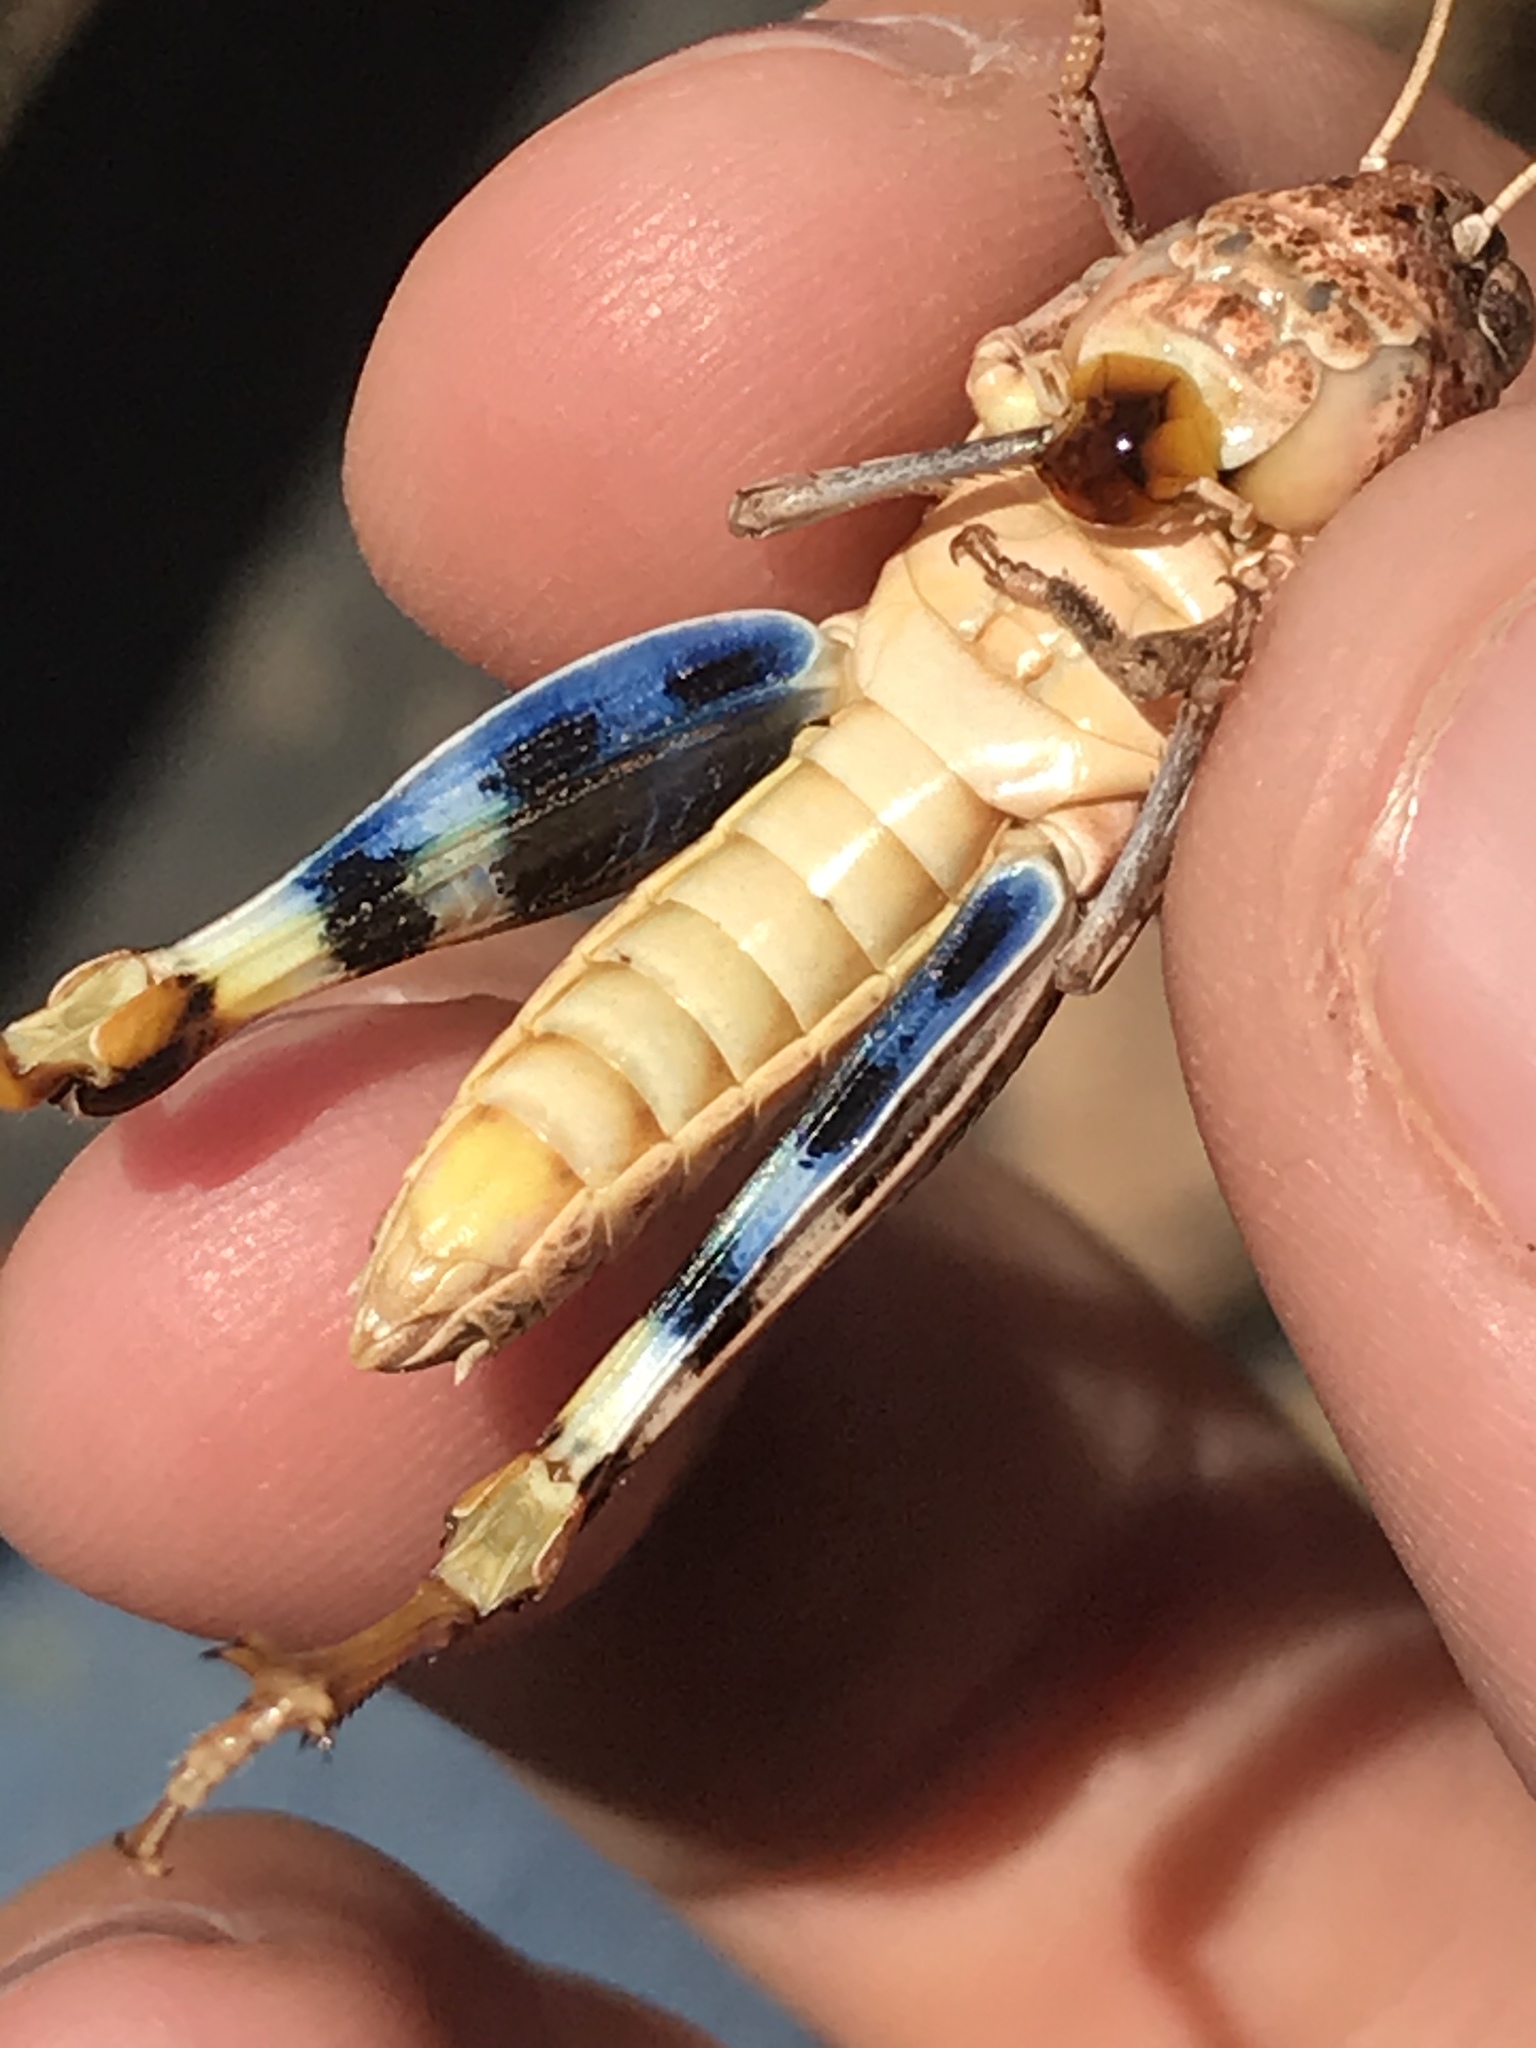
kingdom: Animalia
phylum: Arthropoda
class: Insecta
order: Orthoptera
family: Acrididae
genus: Hippiscus
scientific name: Hippiscus ocelote
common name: Wrinkled grasshopper
